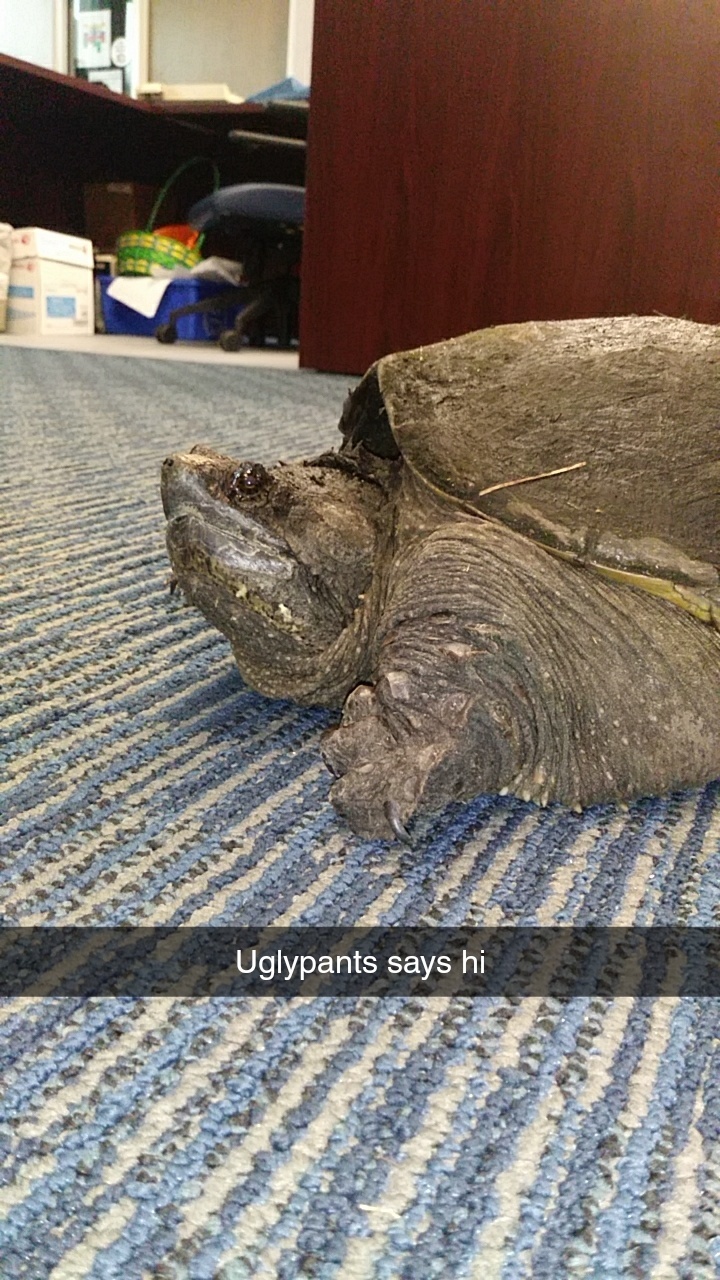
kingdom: Animalia
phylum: Chordata
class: Testudines
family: Chelydridae
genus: Chelydra
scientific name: Chelydra serpentina
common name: Common snapping turtle
